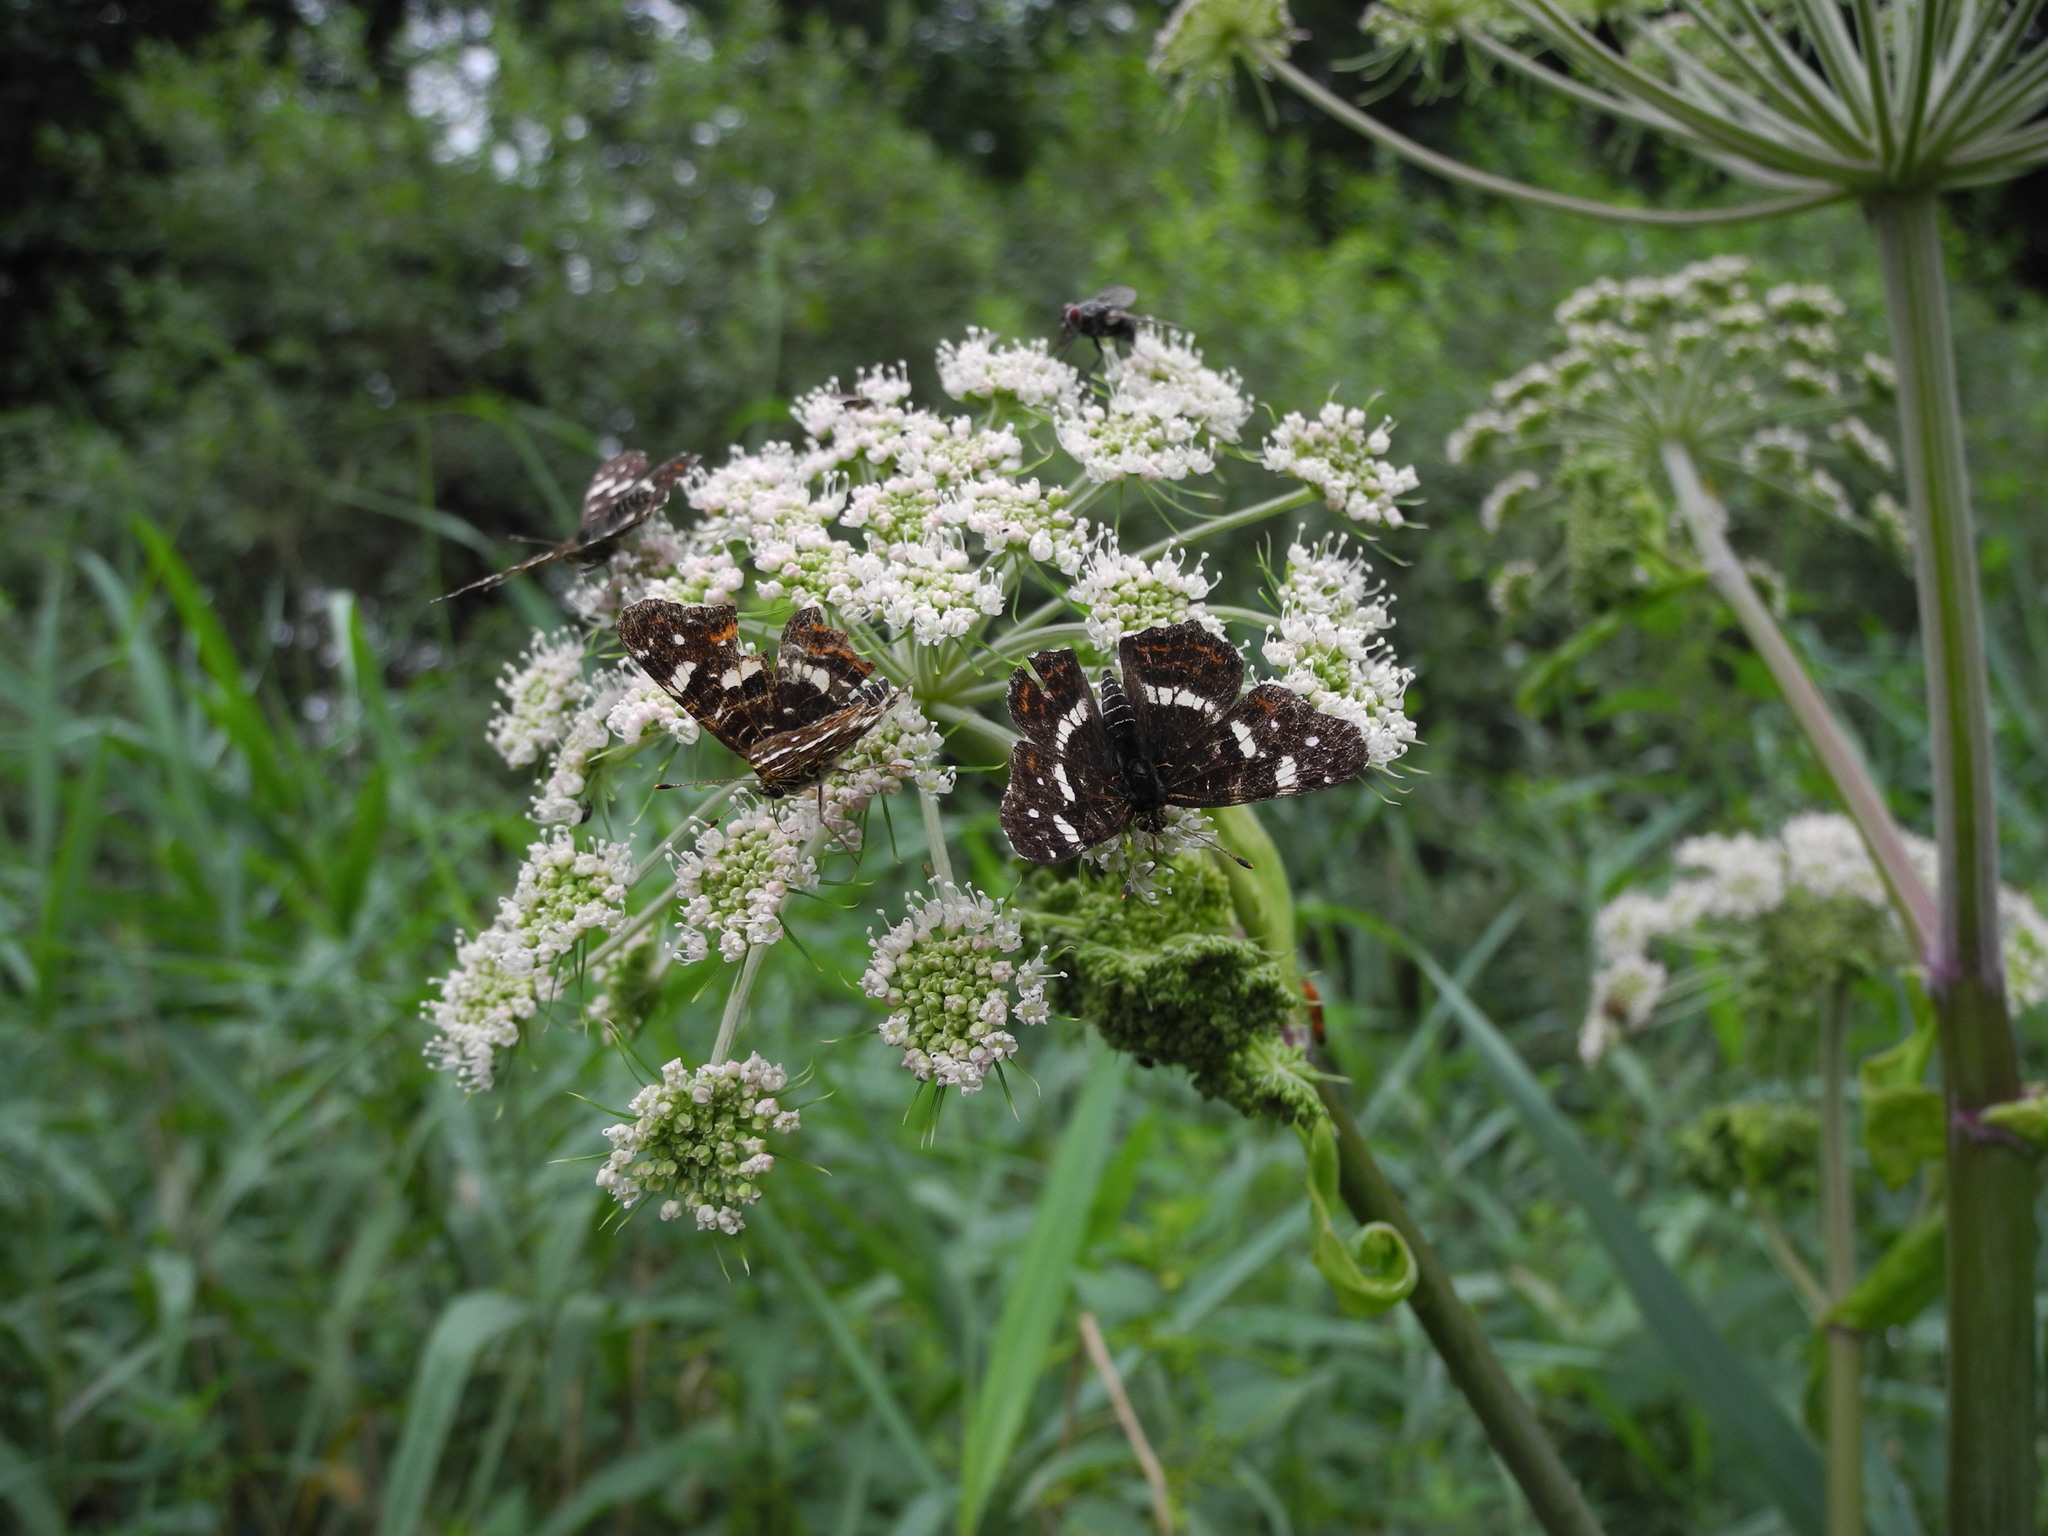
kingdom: Animalia
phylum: Arthropoda
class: Insecta
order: Lepidoptera
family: Nymphalidae
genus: Araschnia
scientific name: Araschnia levana
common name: Map butterfly
